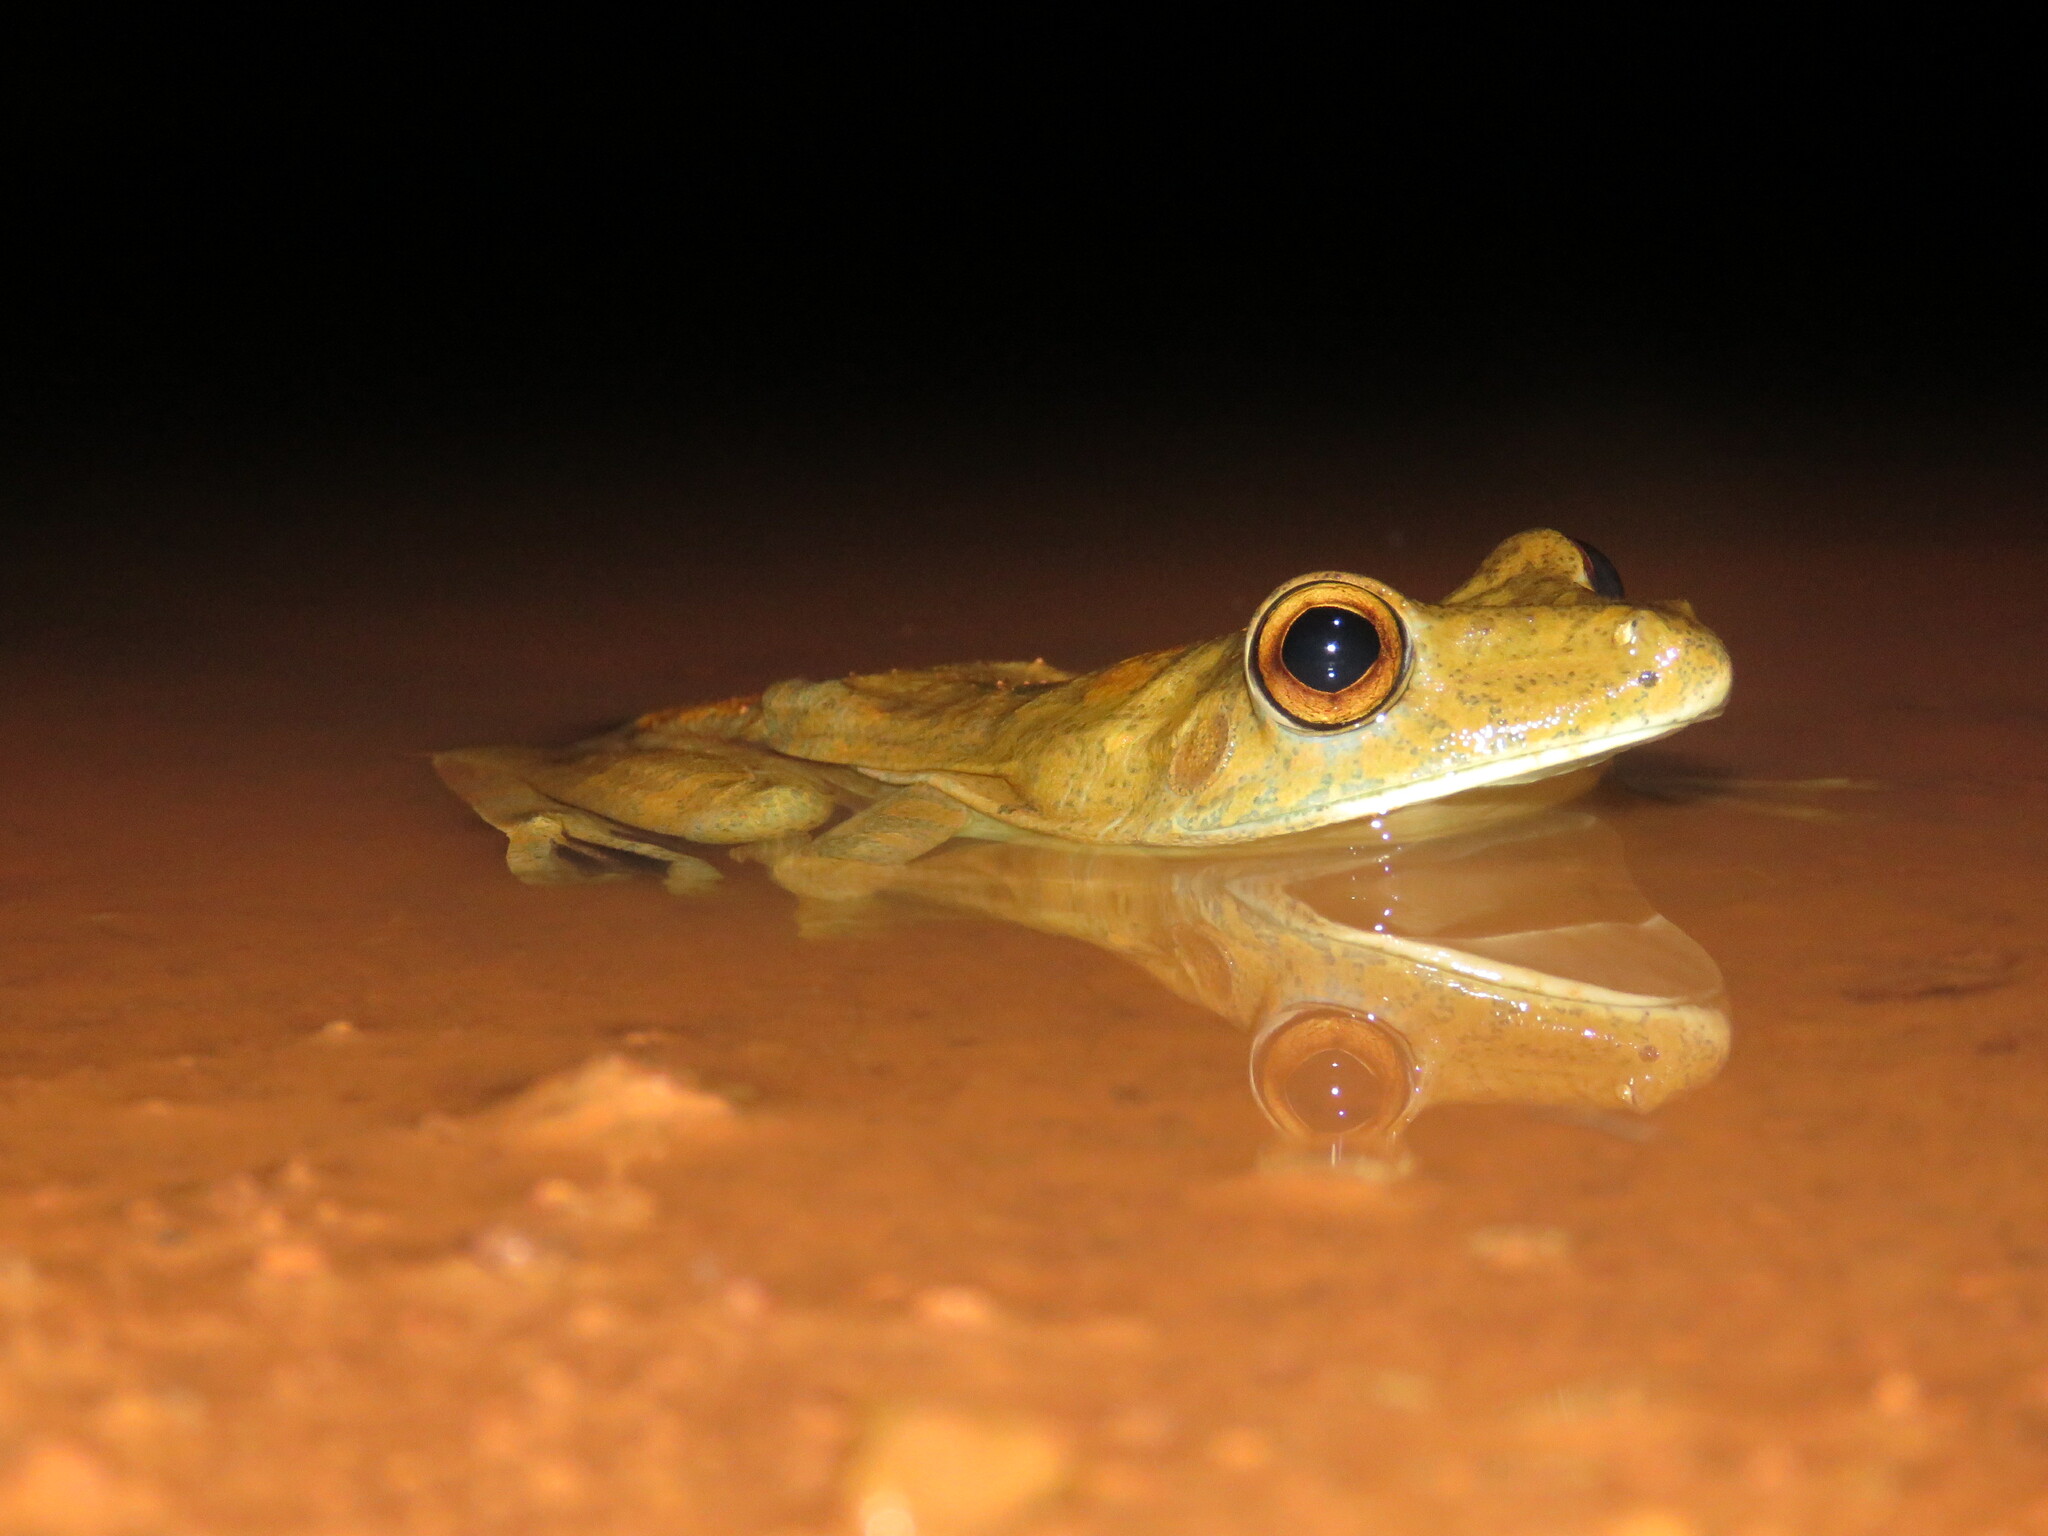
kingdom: Animalia
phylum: Chordata
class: Amphibia
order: Anura
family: Hylidae
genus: Boana
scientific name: Boana boans
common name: Giant gladiator treefrog
